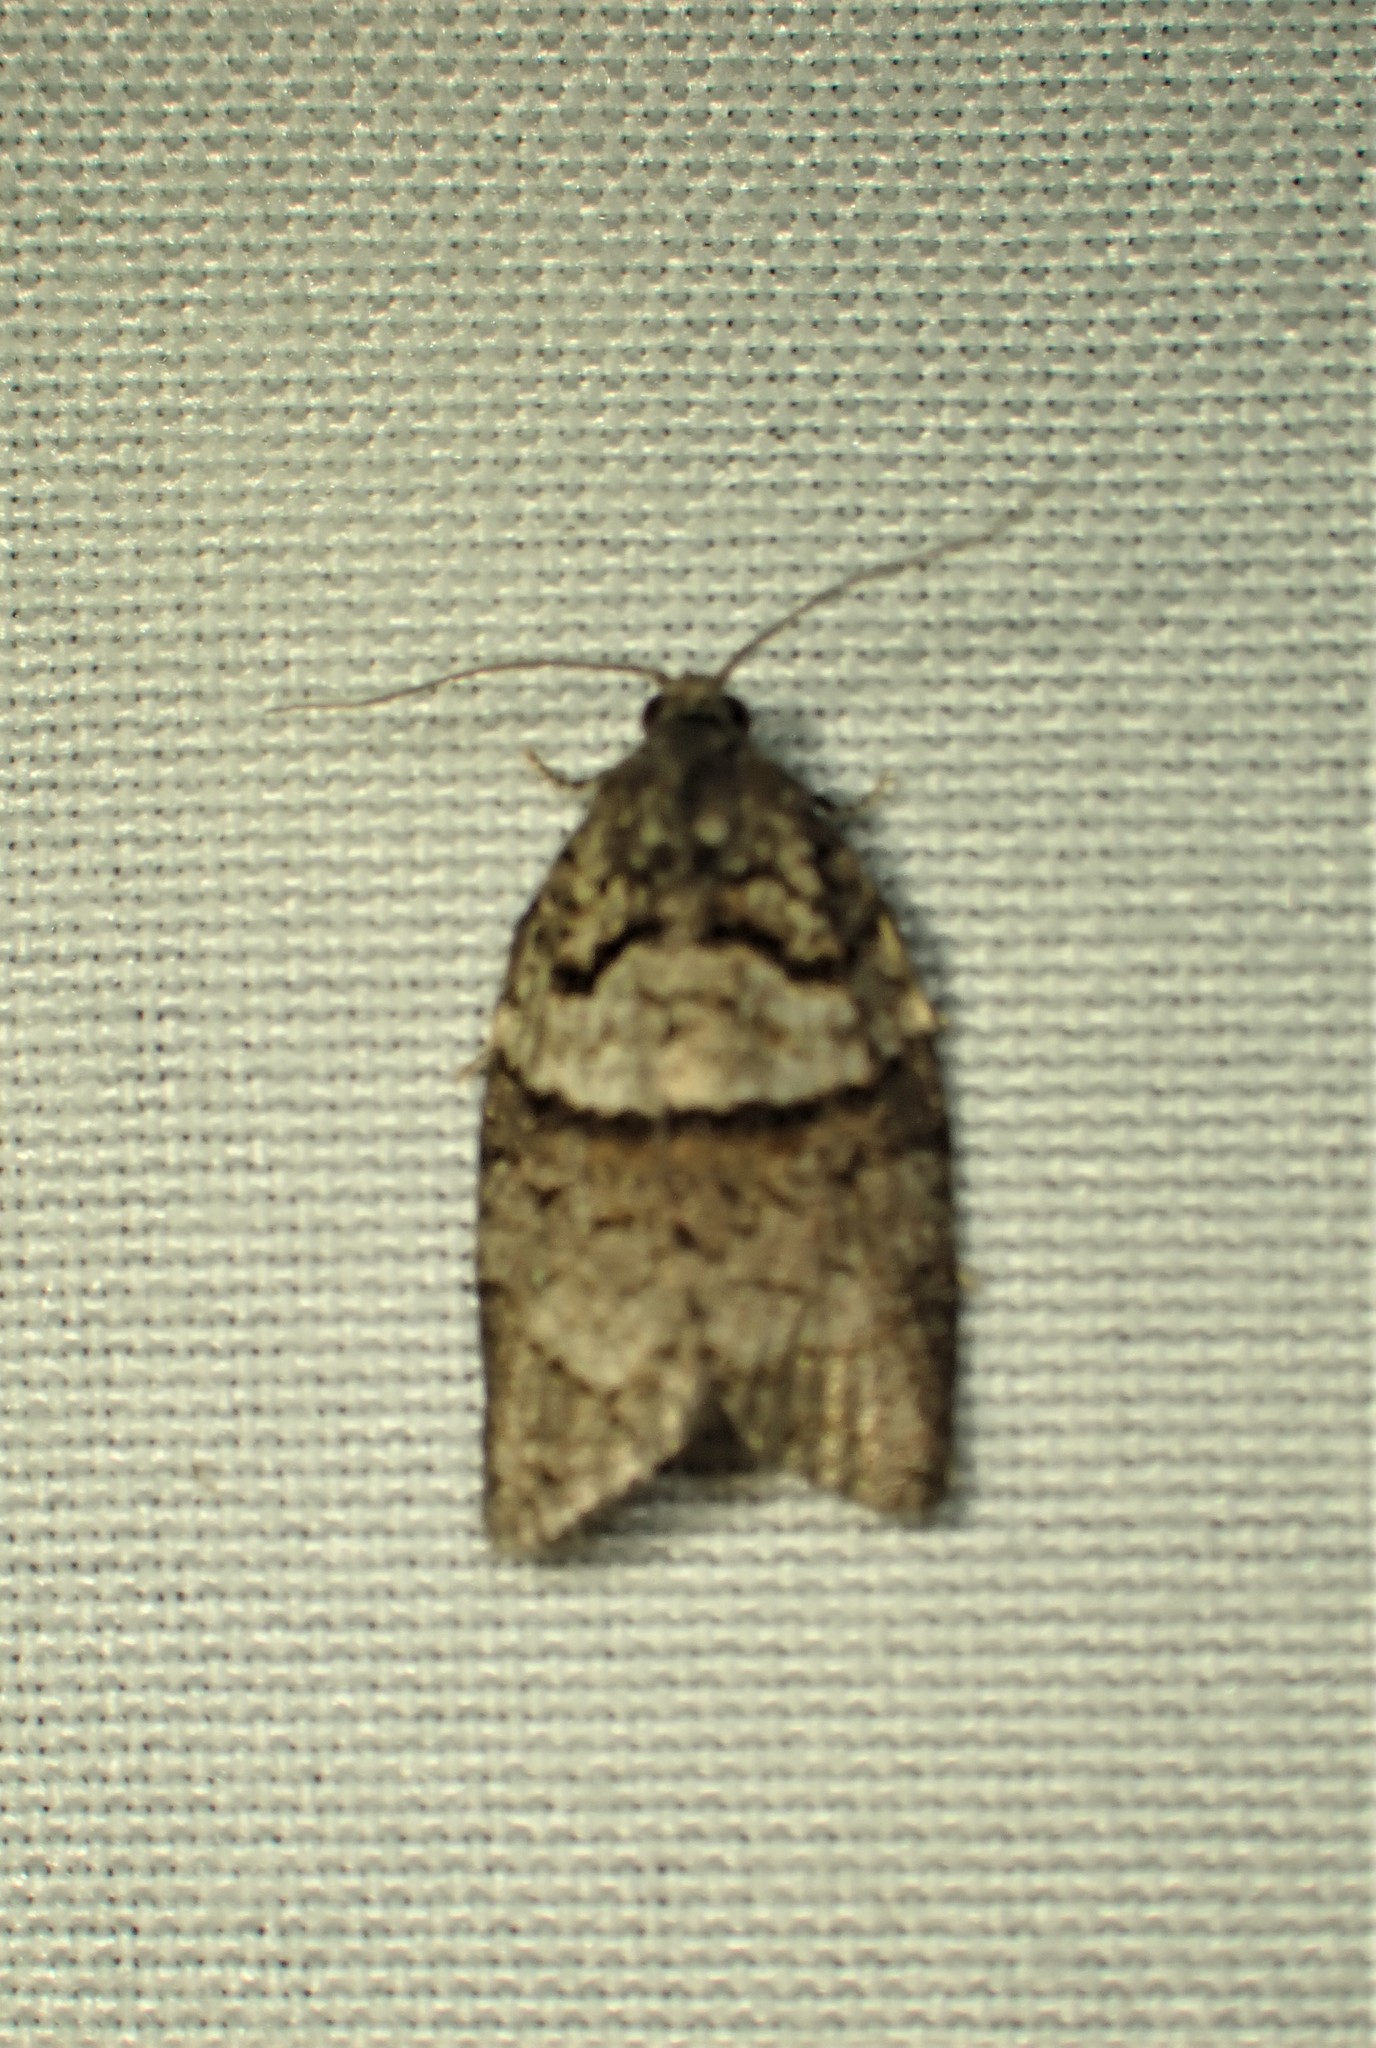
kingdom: Animalia
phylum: Arthropoda
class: Insecta
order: Lepidoptera
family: Tortricidae
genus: Syndemis
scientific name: Syndemis afflictana
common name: Gray leafroller moth
